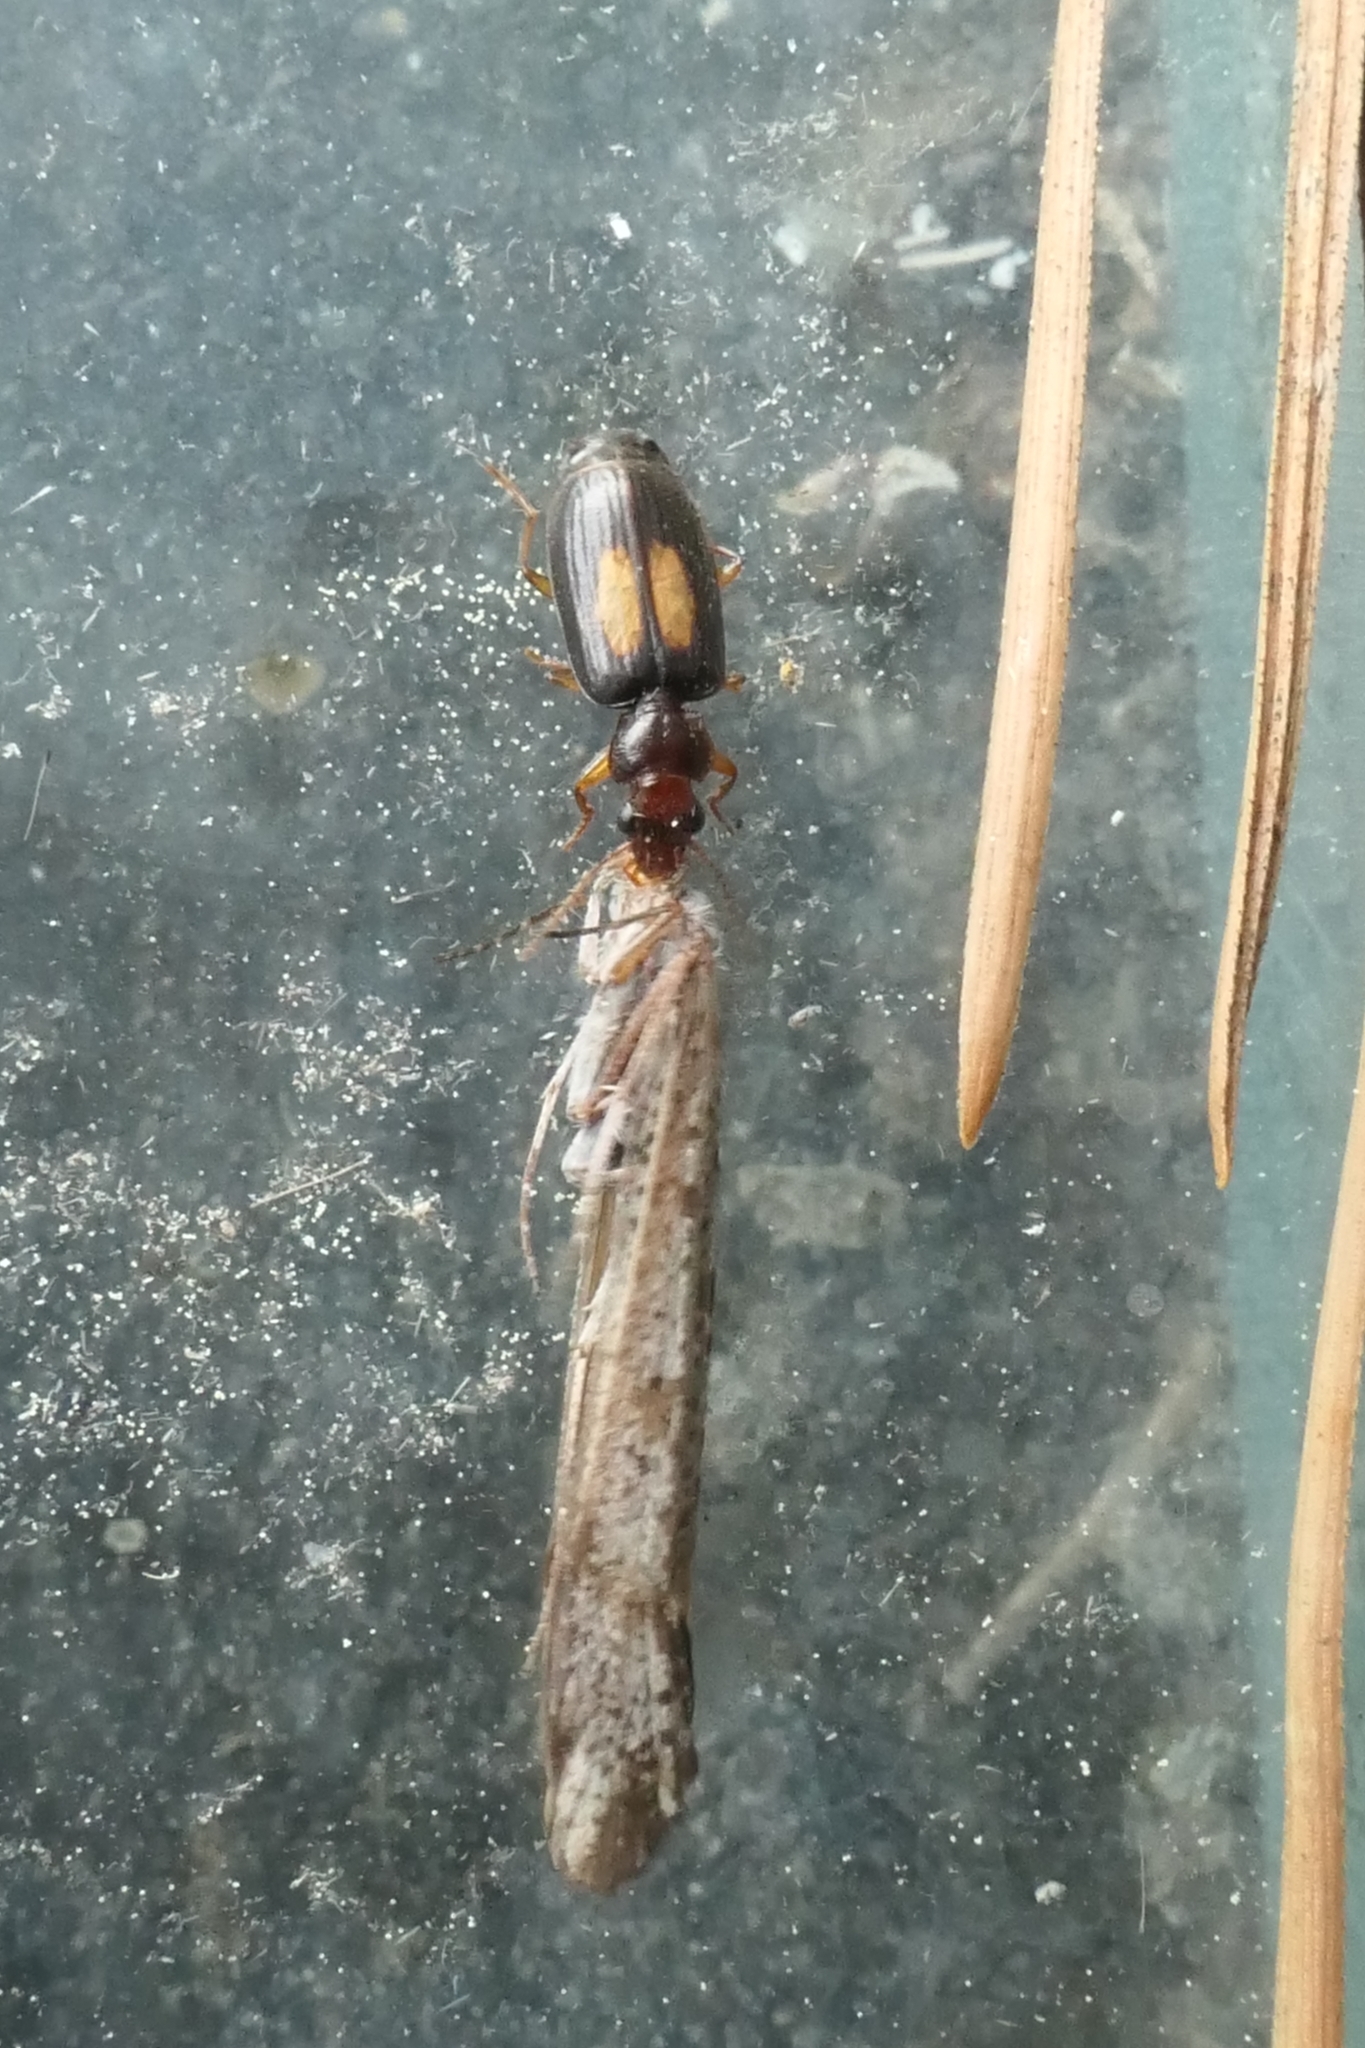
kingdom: Animalia
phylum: Arthropoda
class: Insecta
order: Coleoptera
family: Carabidae
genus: Agonocheila
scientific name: Agonocheila antipodum
